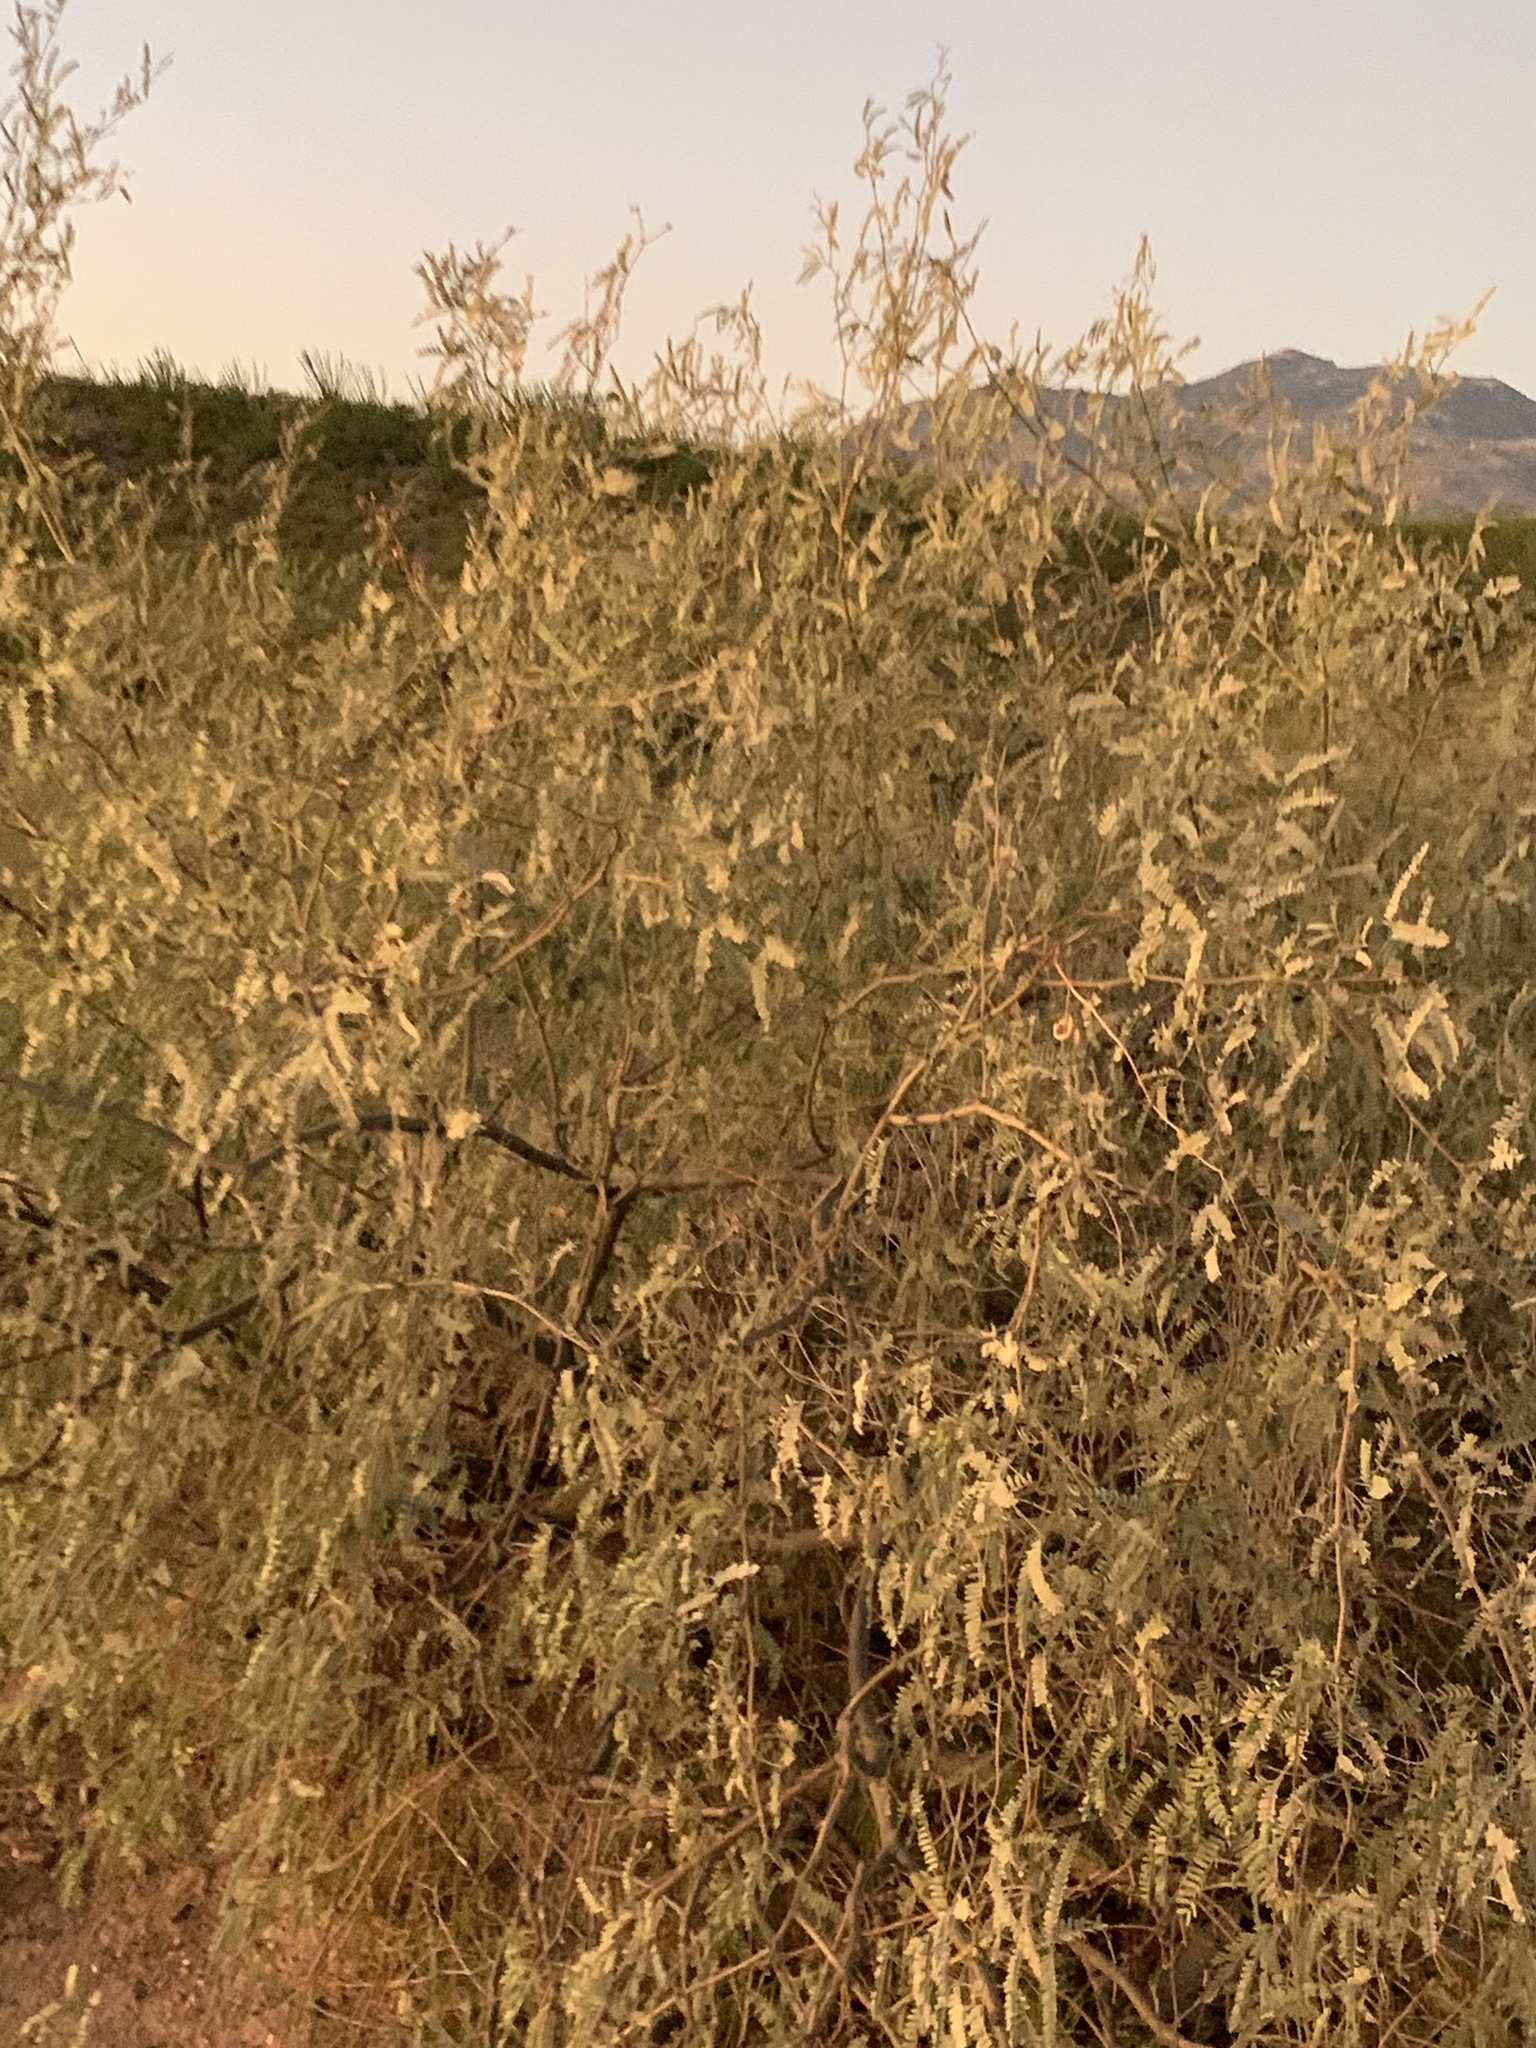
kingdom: Plantae
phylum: Tracheophyta
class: Magnoliopsida
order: Fabales
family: Fabaceae
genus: Prosopis
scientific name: Prosopis velutina
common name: Velvet mesquite
